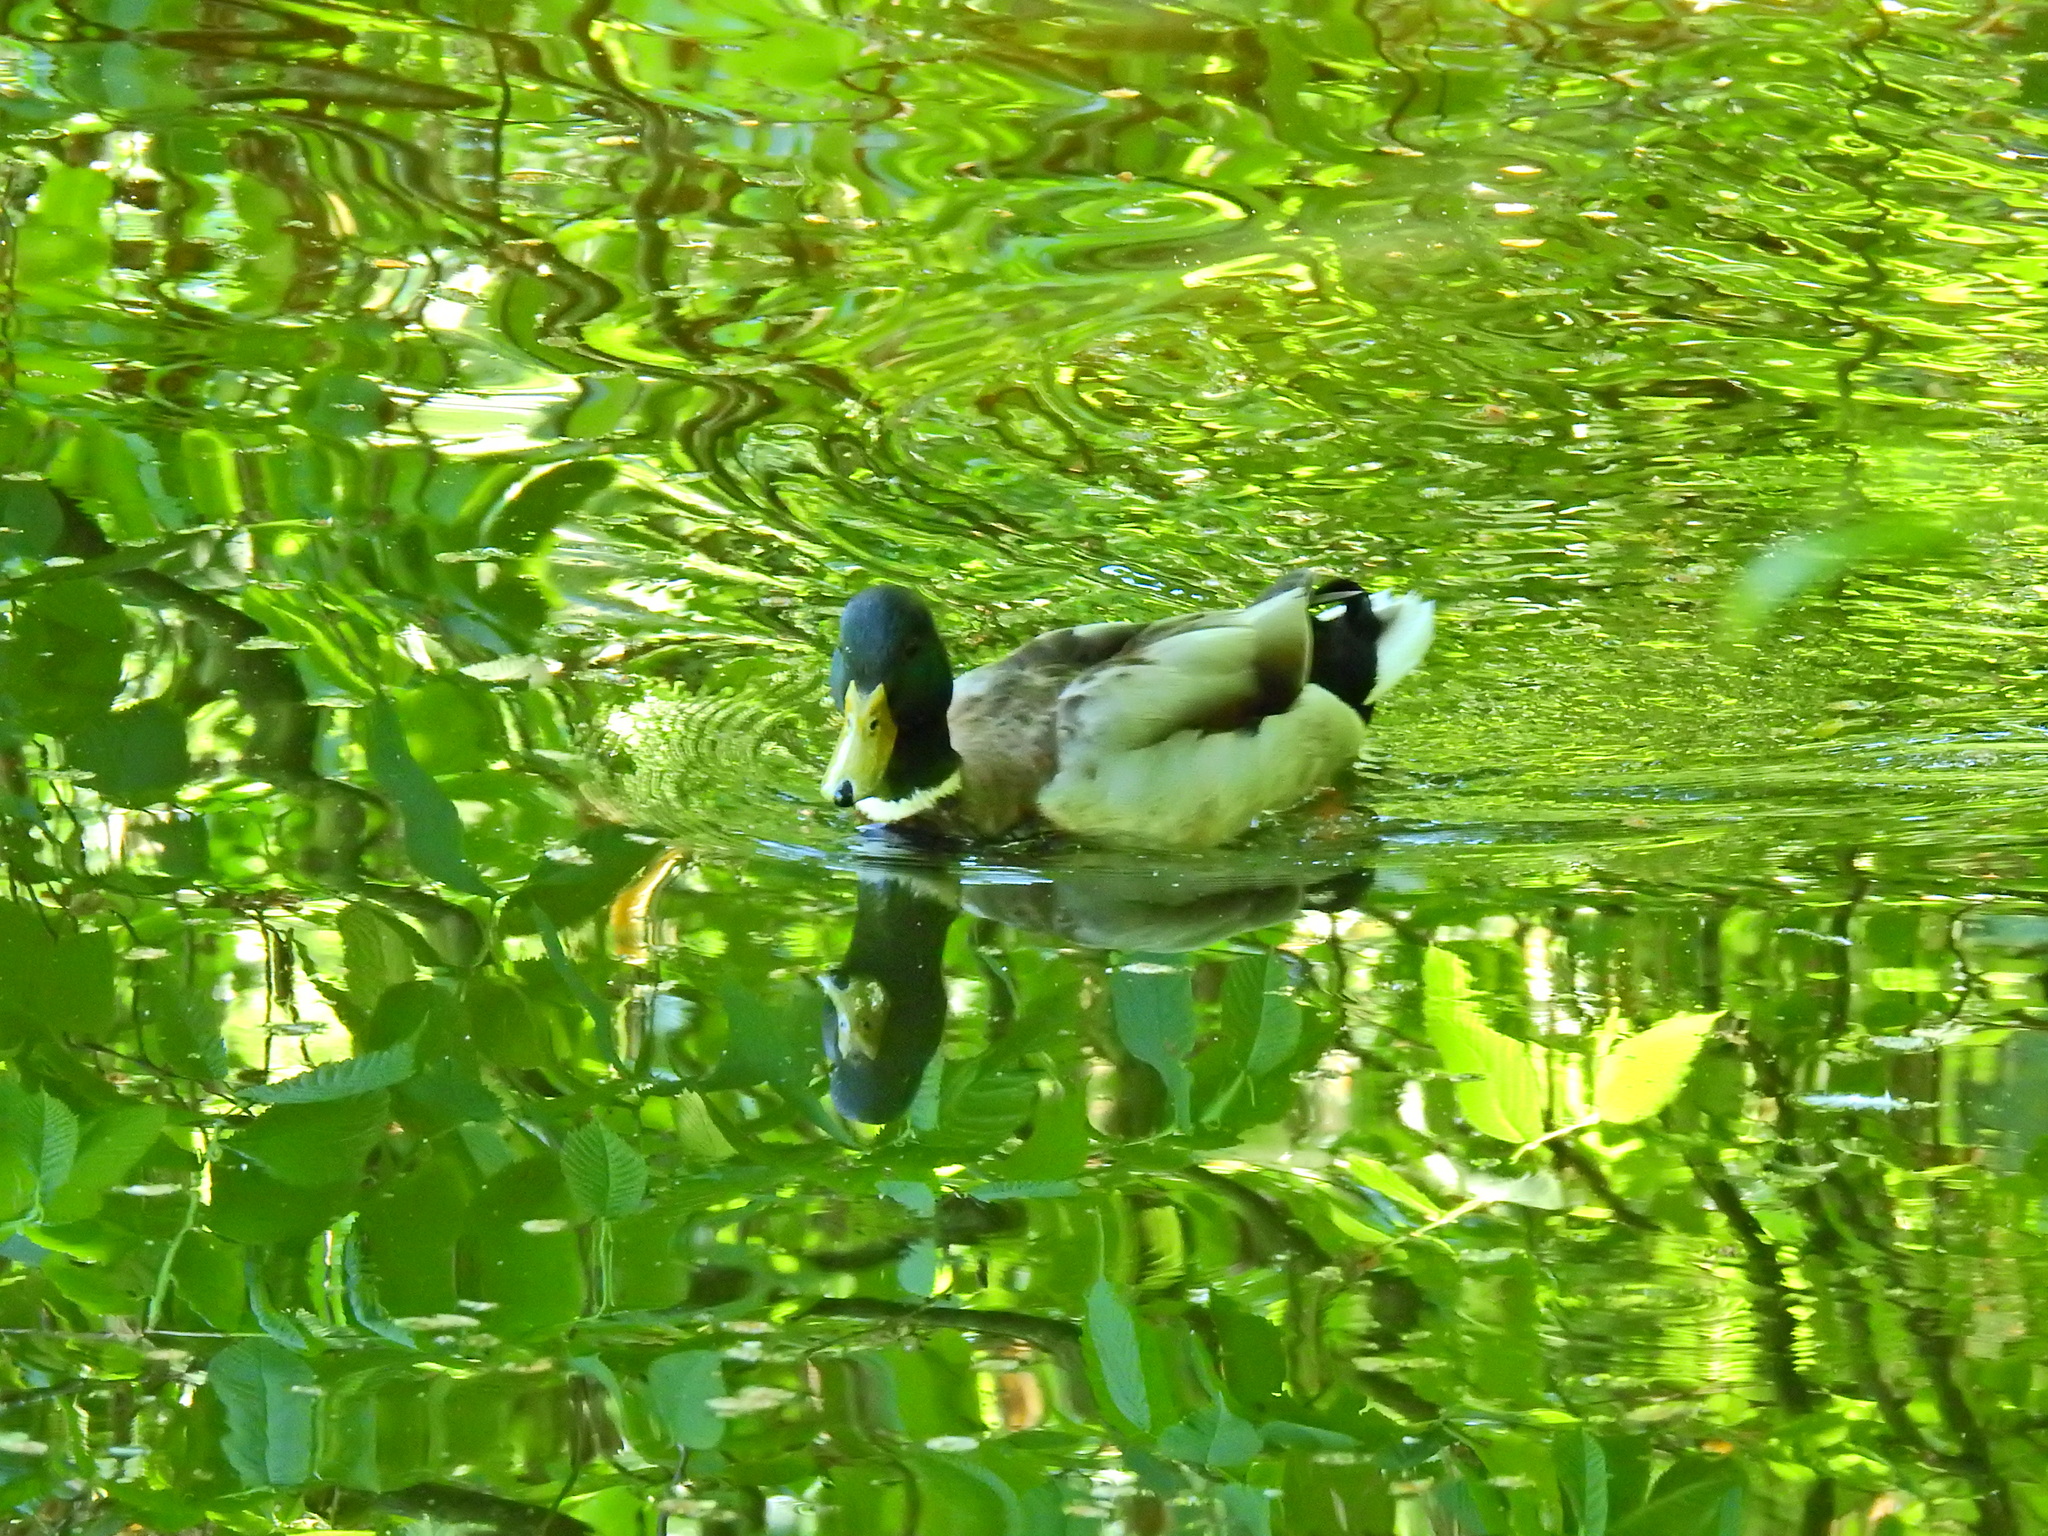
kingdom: Animalia
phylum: Chordata
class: Aves
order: Anseriformes
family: Anatidae
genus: Anas
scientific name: Anas platyrhynchos
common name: Mallard
